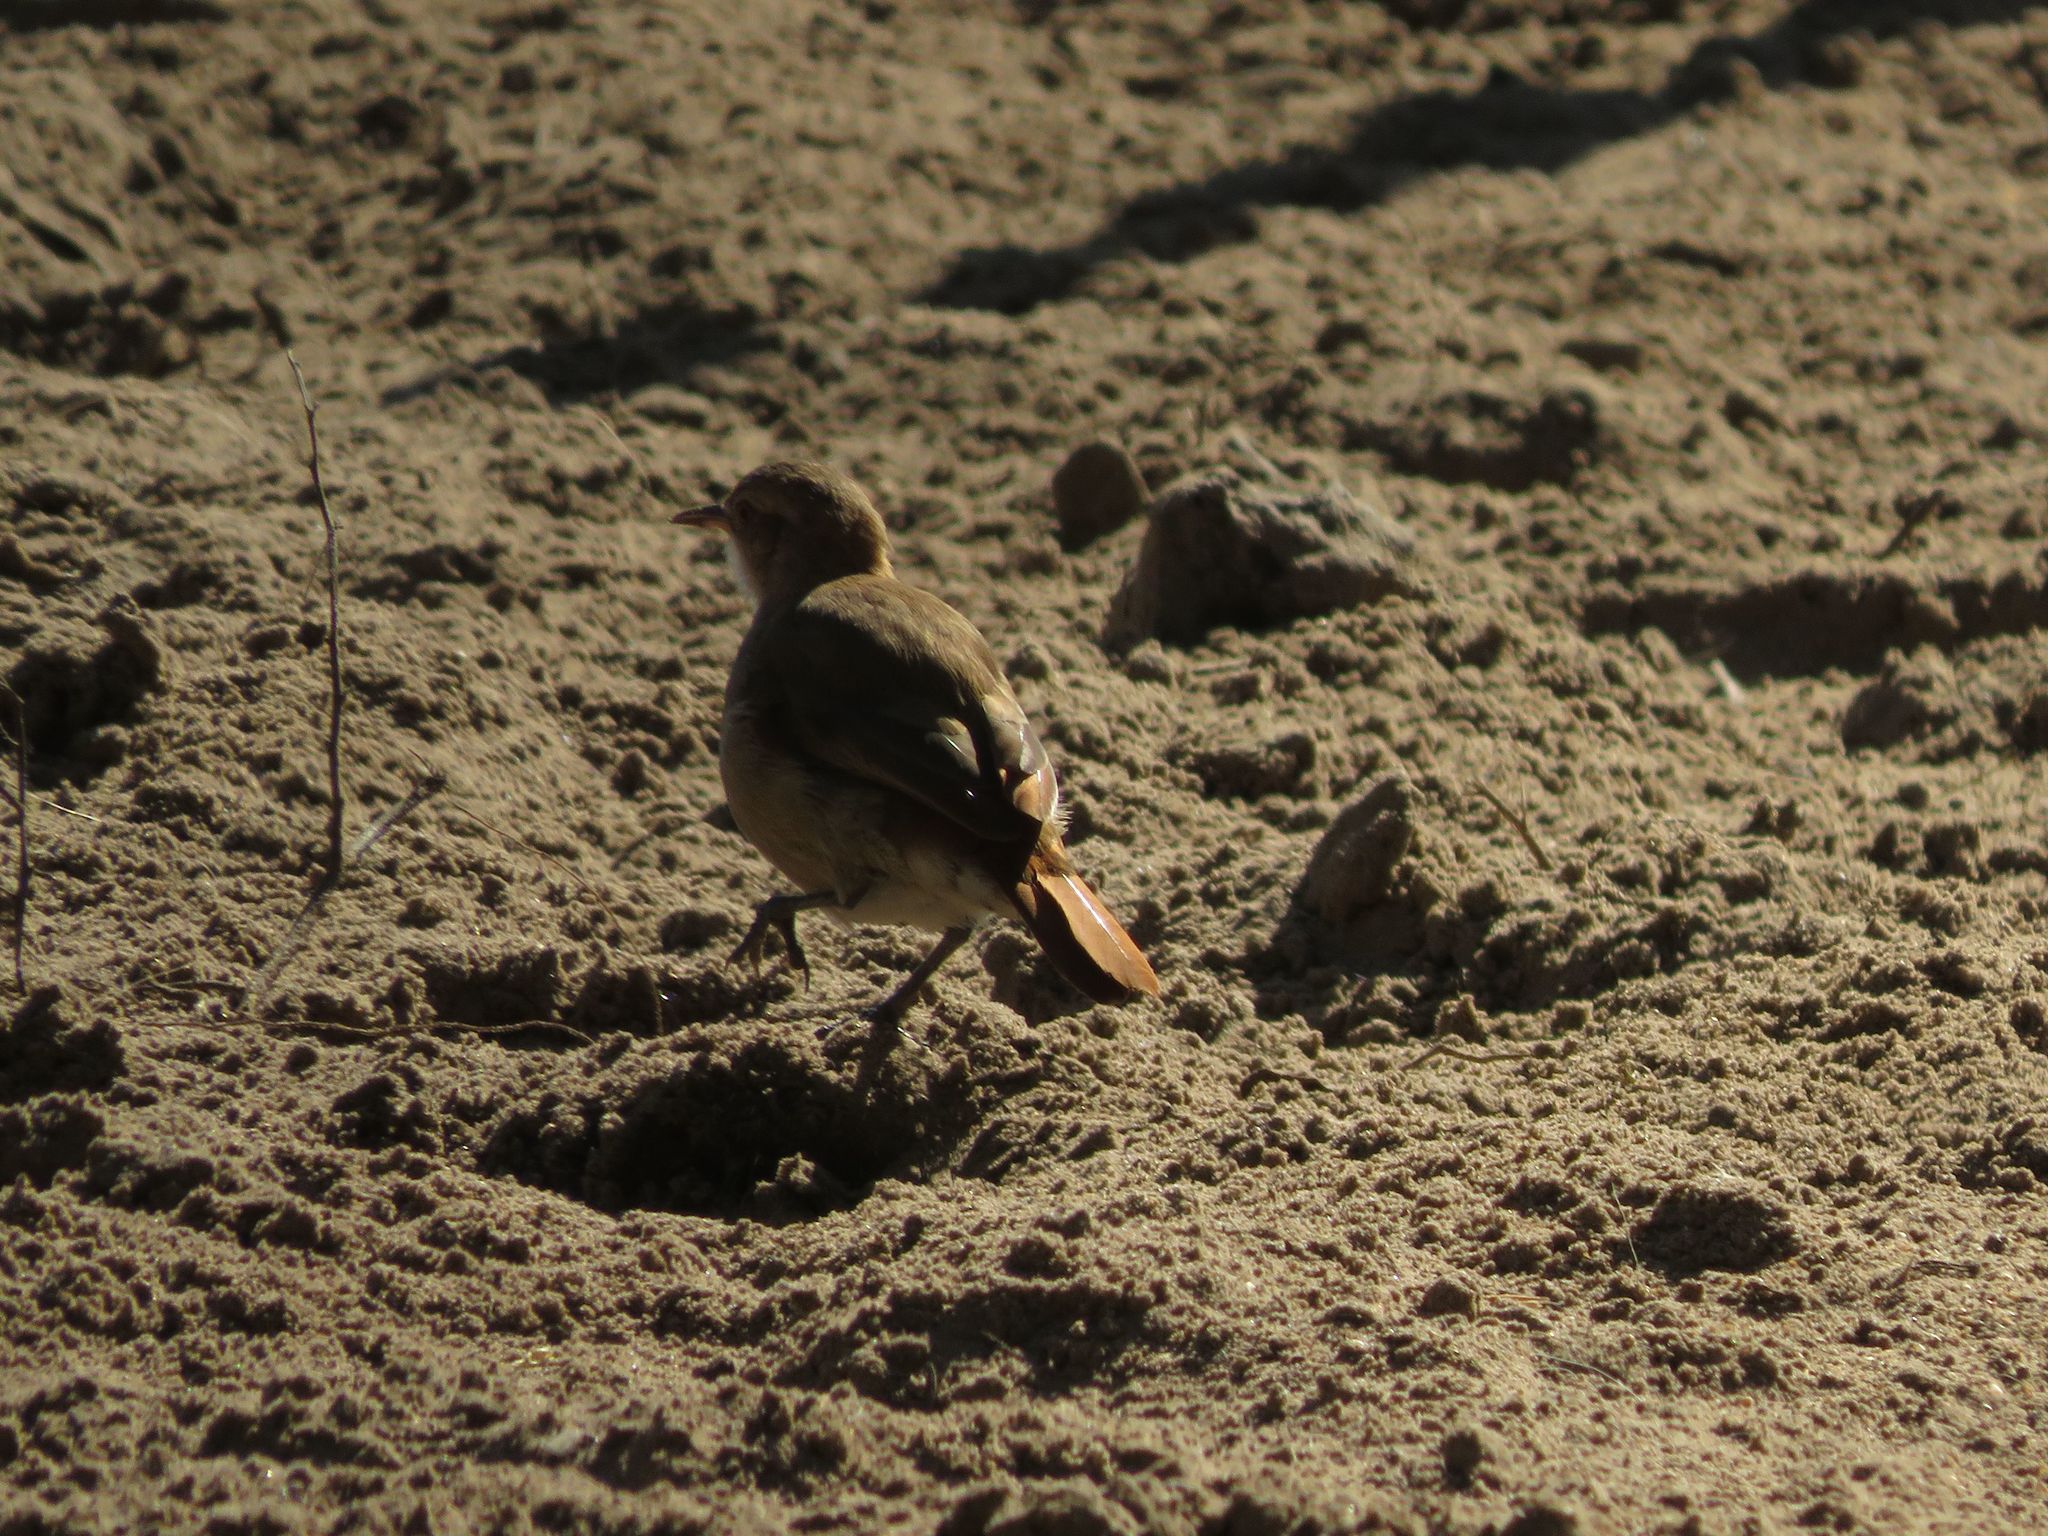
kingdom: Animalia
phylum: Chordata
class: Aves
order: Passeriformes
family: Furnariidae
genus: Furnarius
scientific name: Furnarius rufus
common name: Rufous hornero
